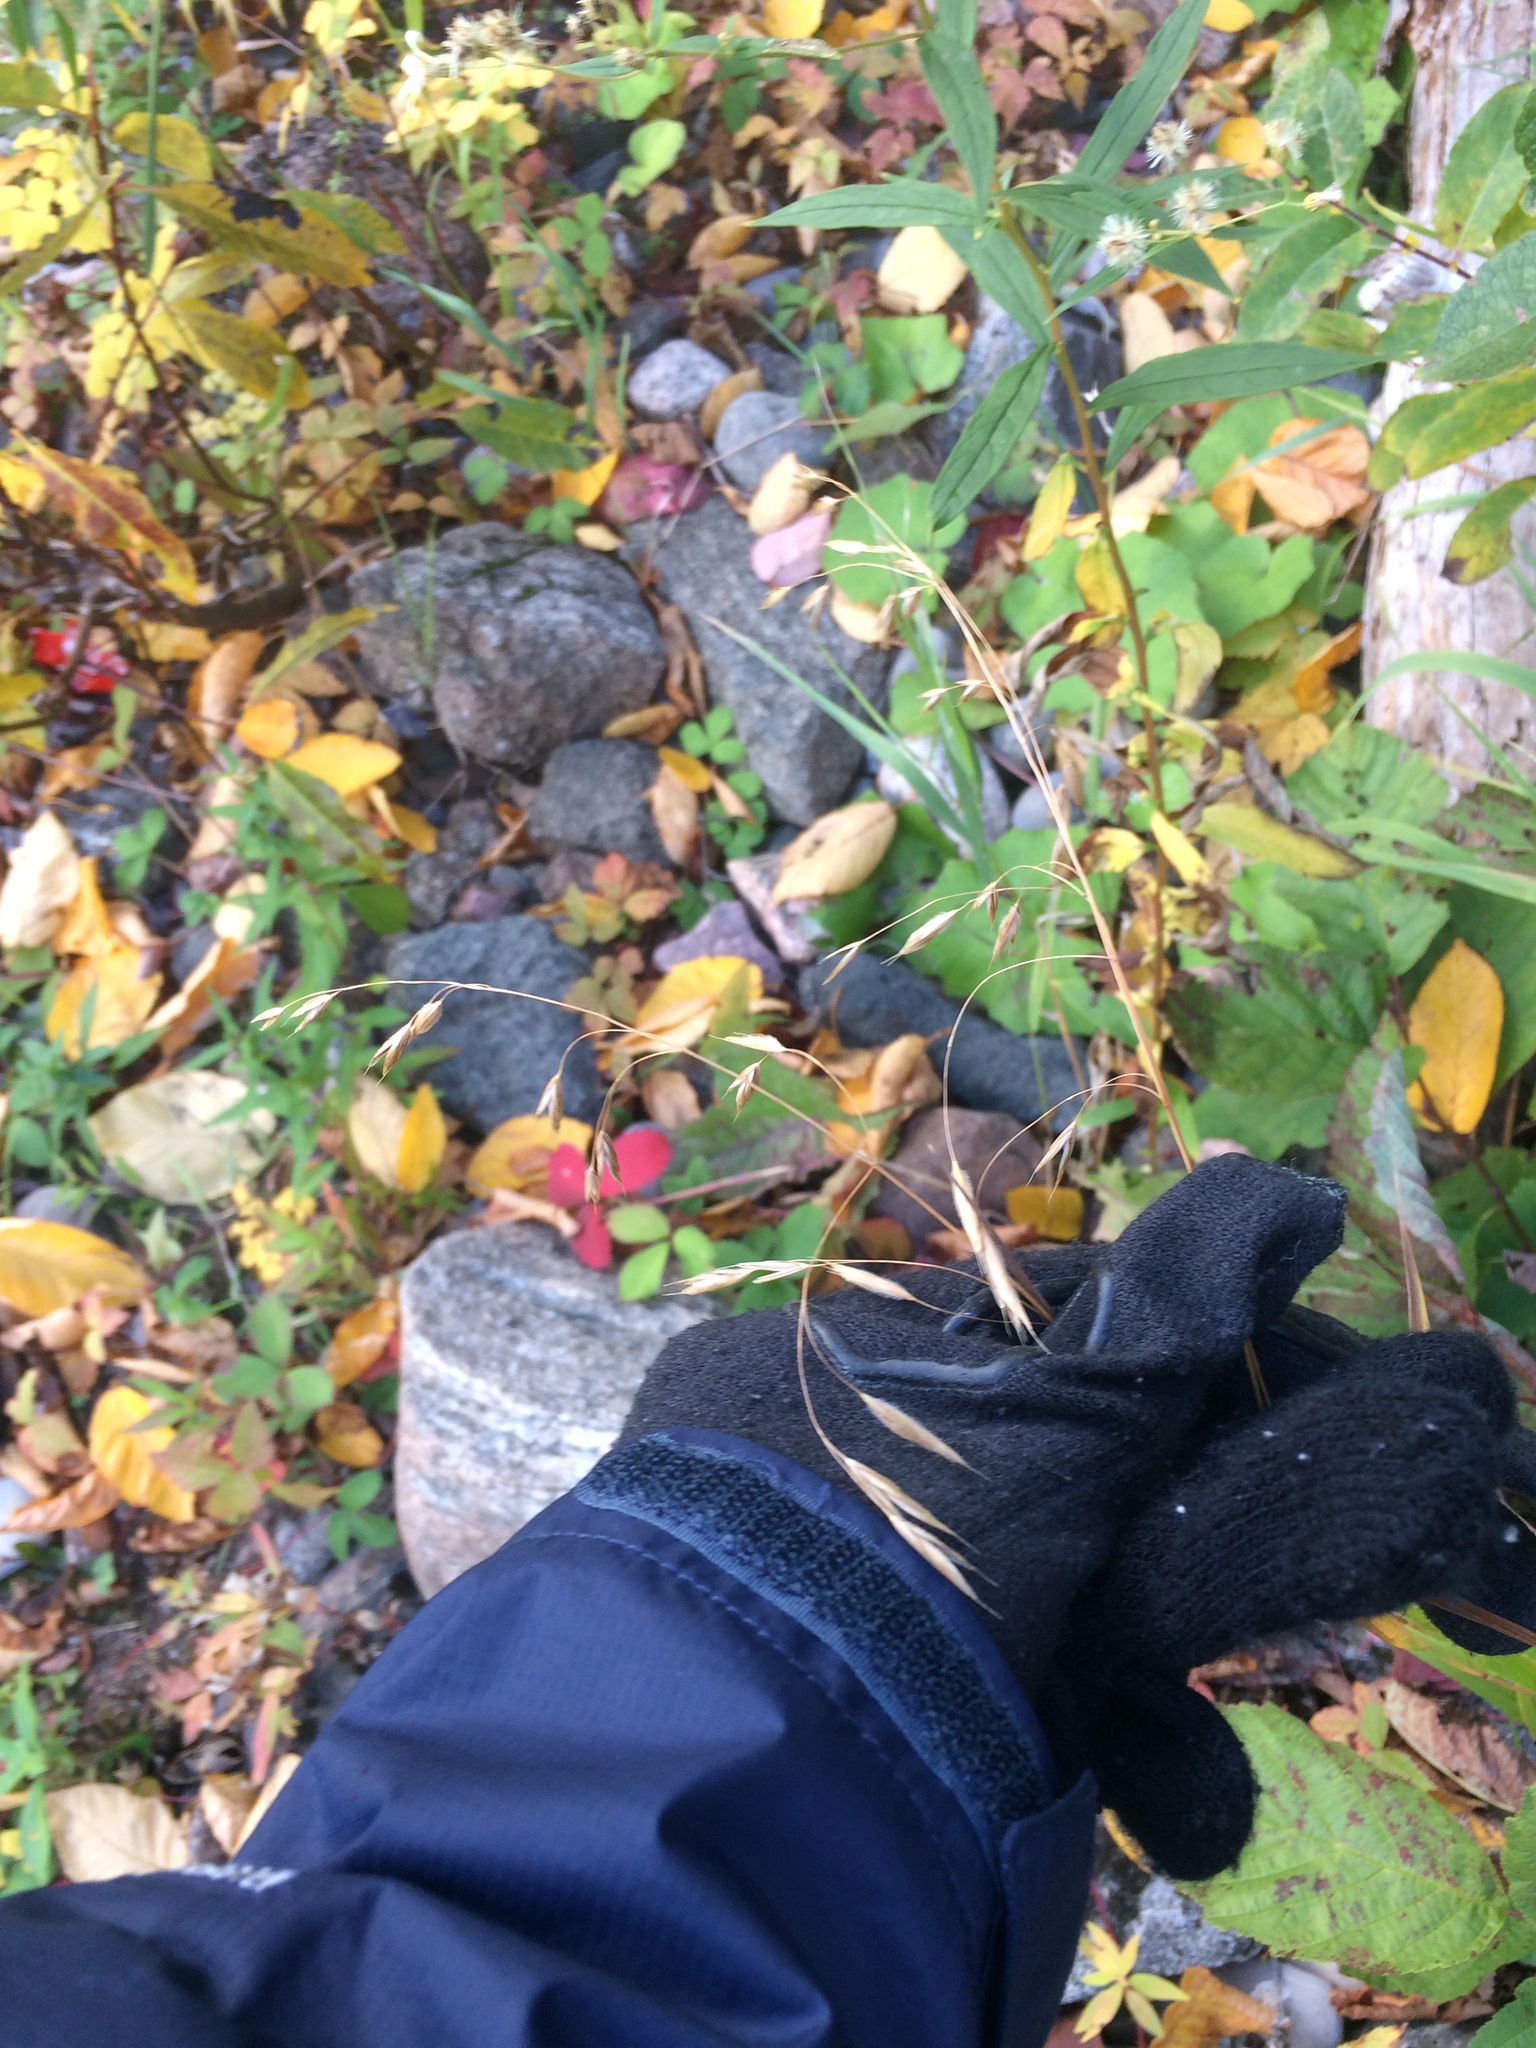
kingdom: Plantae
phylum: Tracheophyta
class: Liliopsida
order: Poales
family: Poaceae
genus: Bromus
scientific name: Bromus ciliatus
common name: Fringe brome
